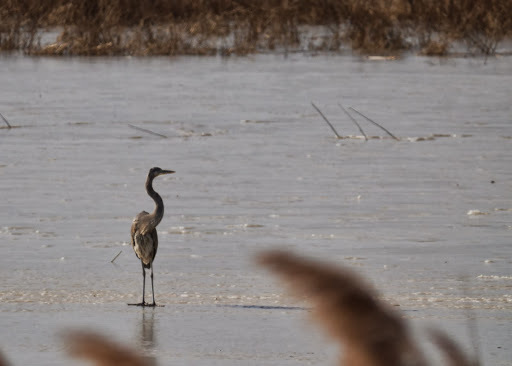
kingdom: Animalia
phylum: Chordata
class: Aves
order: Pelecaniformes
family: Ardeidae
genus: Ardea
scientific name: Ardea herodias
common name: Great blue heron
